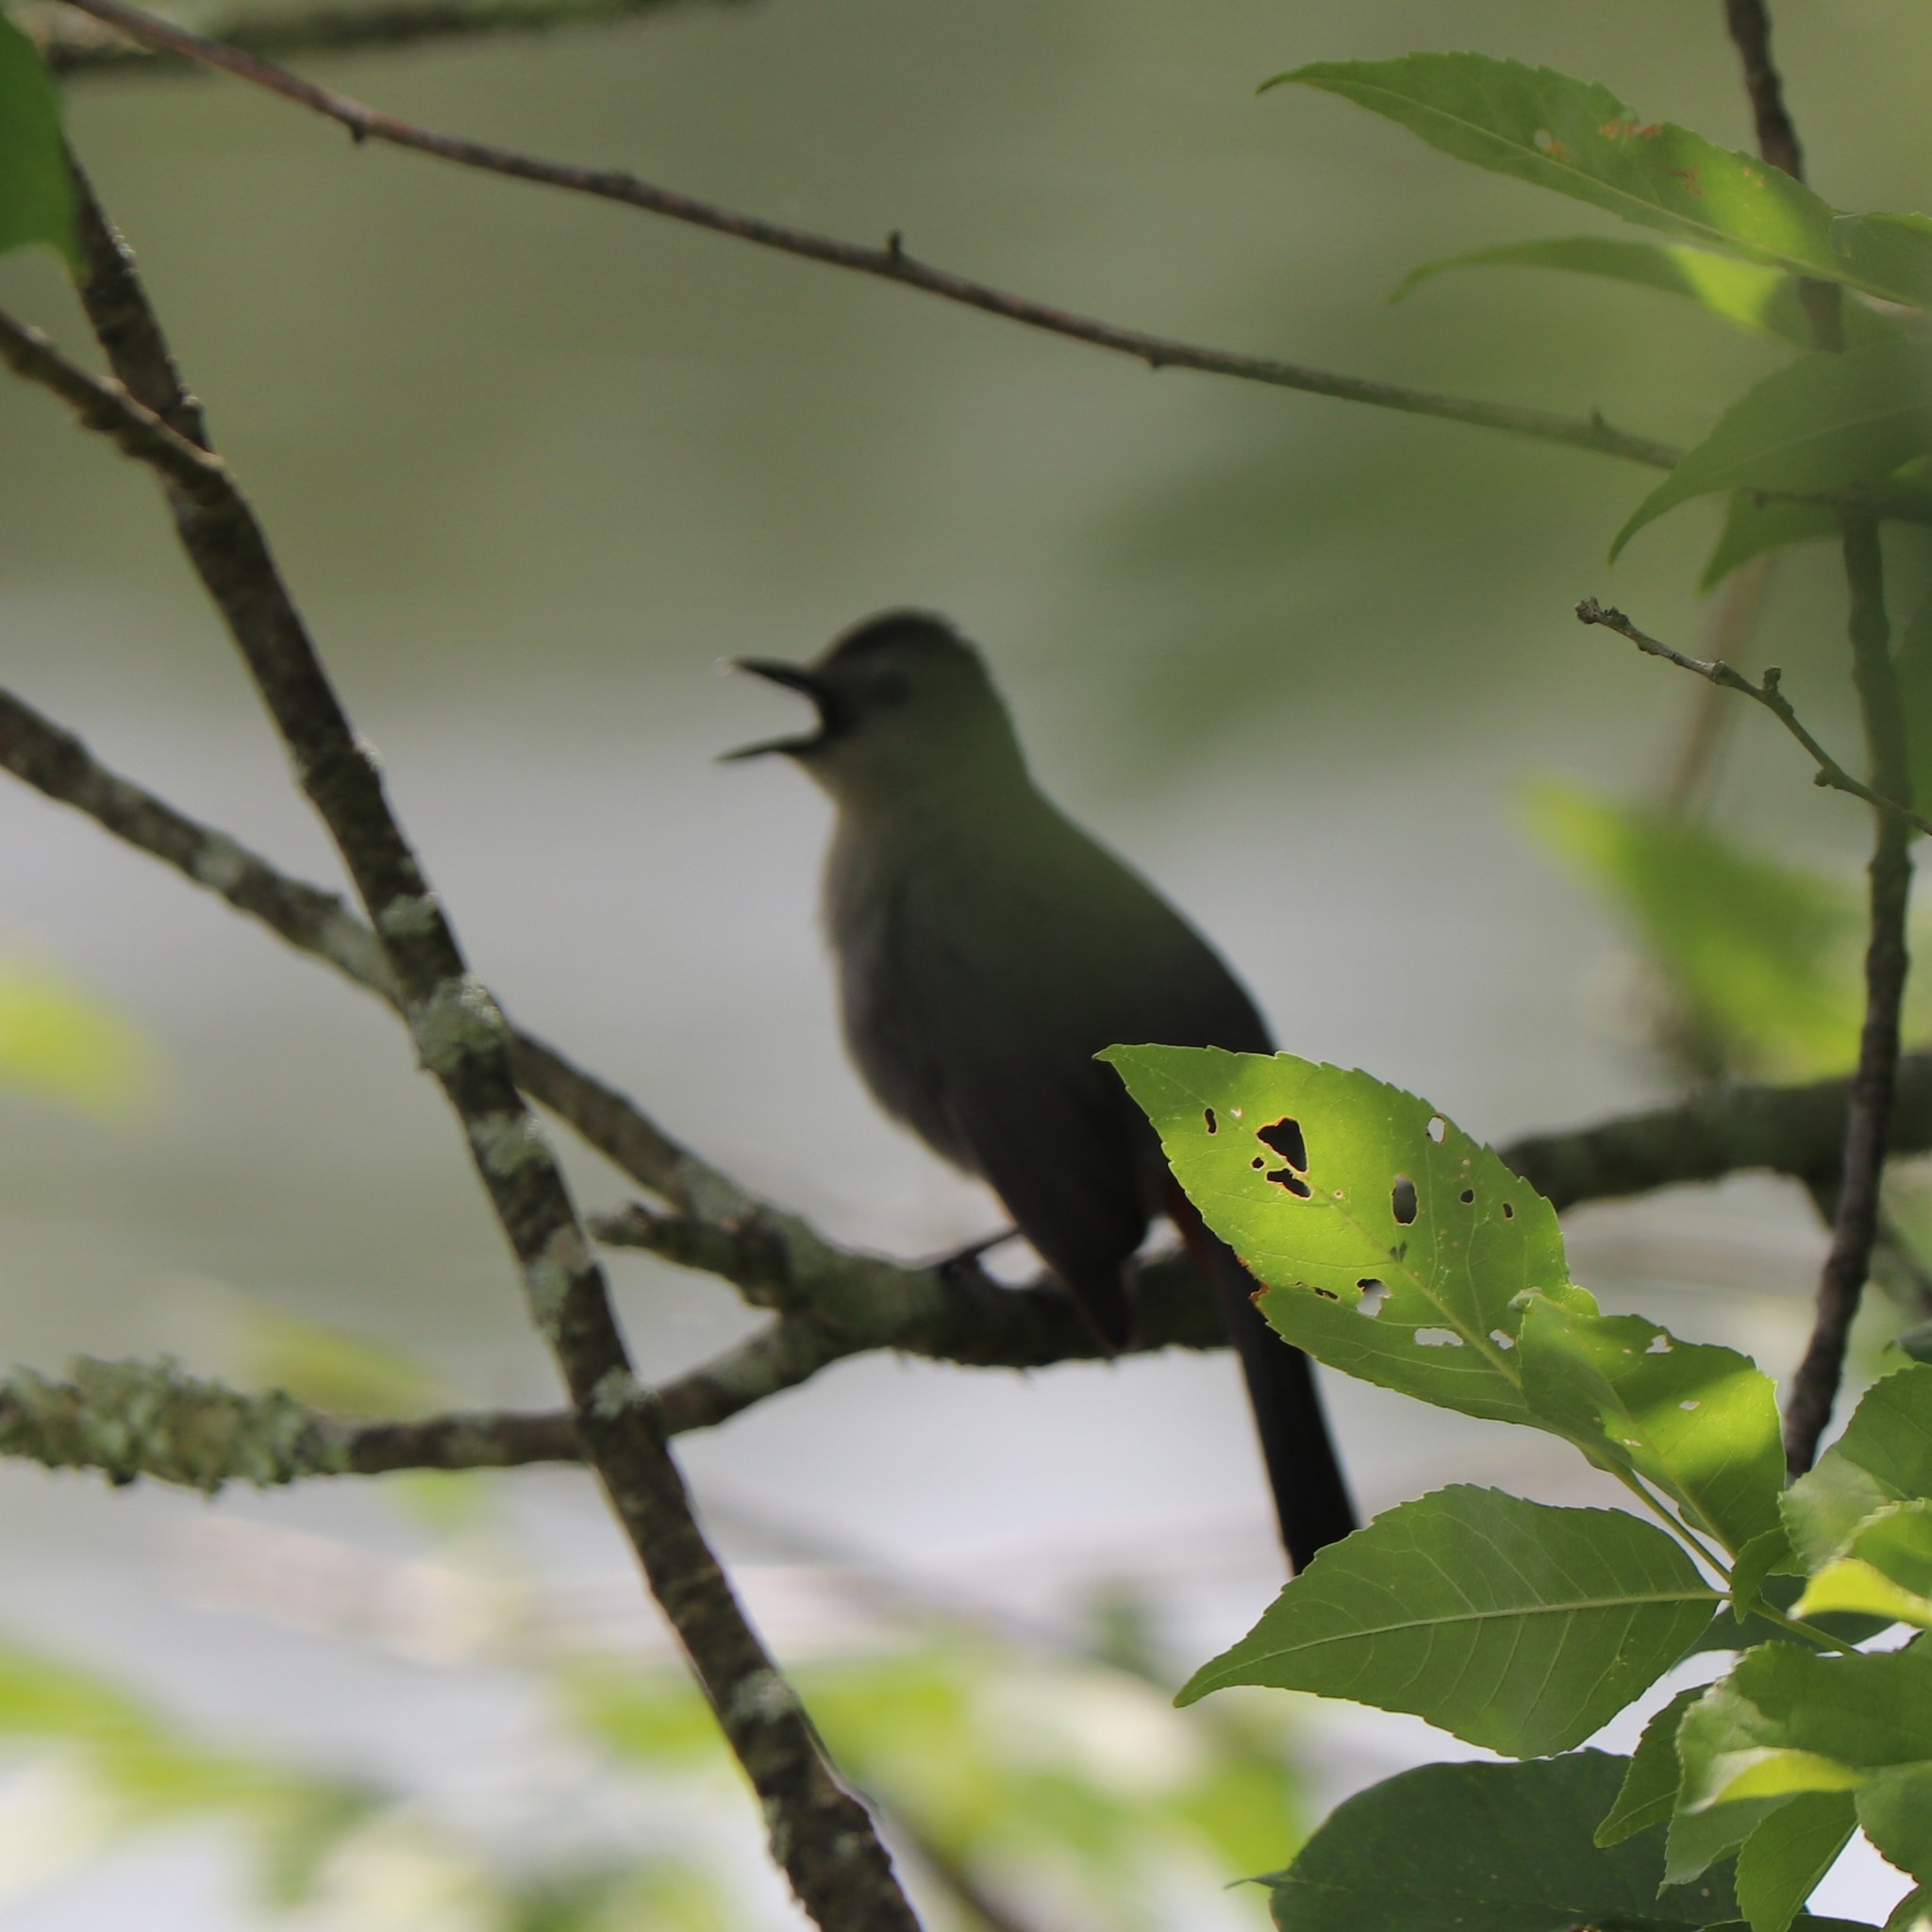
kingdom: Animalia
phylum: Chordata
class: Aves
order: Passeriformes
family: Mimidae
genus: Dumetella
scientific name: Dumetella carolinensis
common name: Gray catbird
